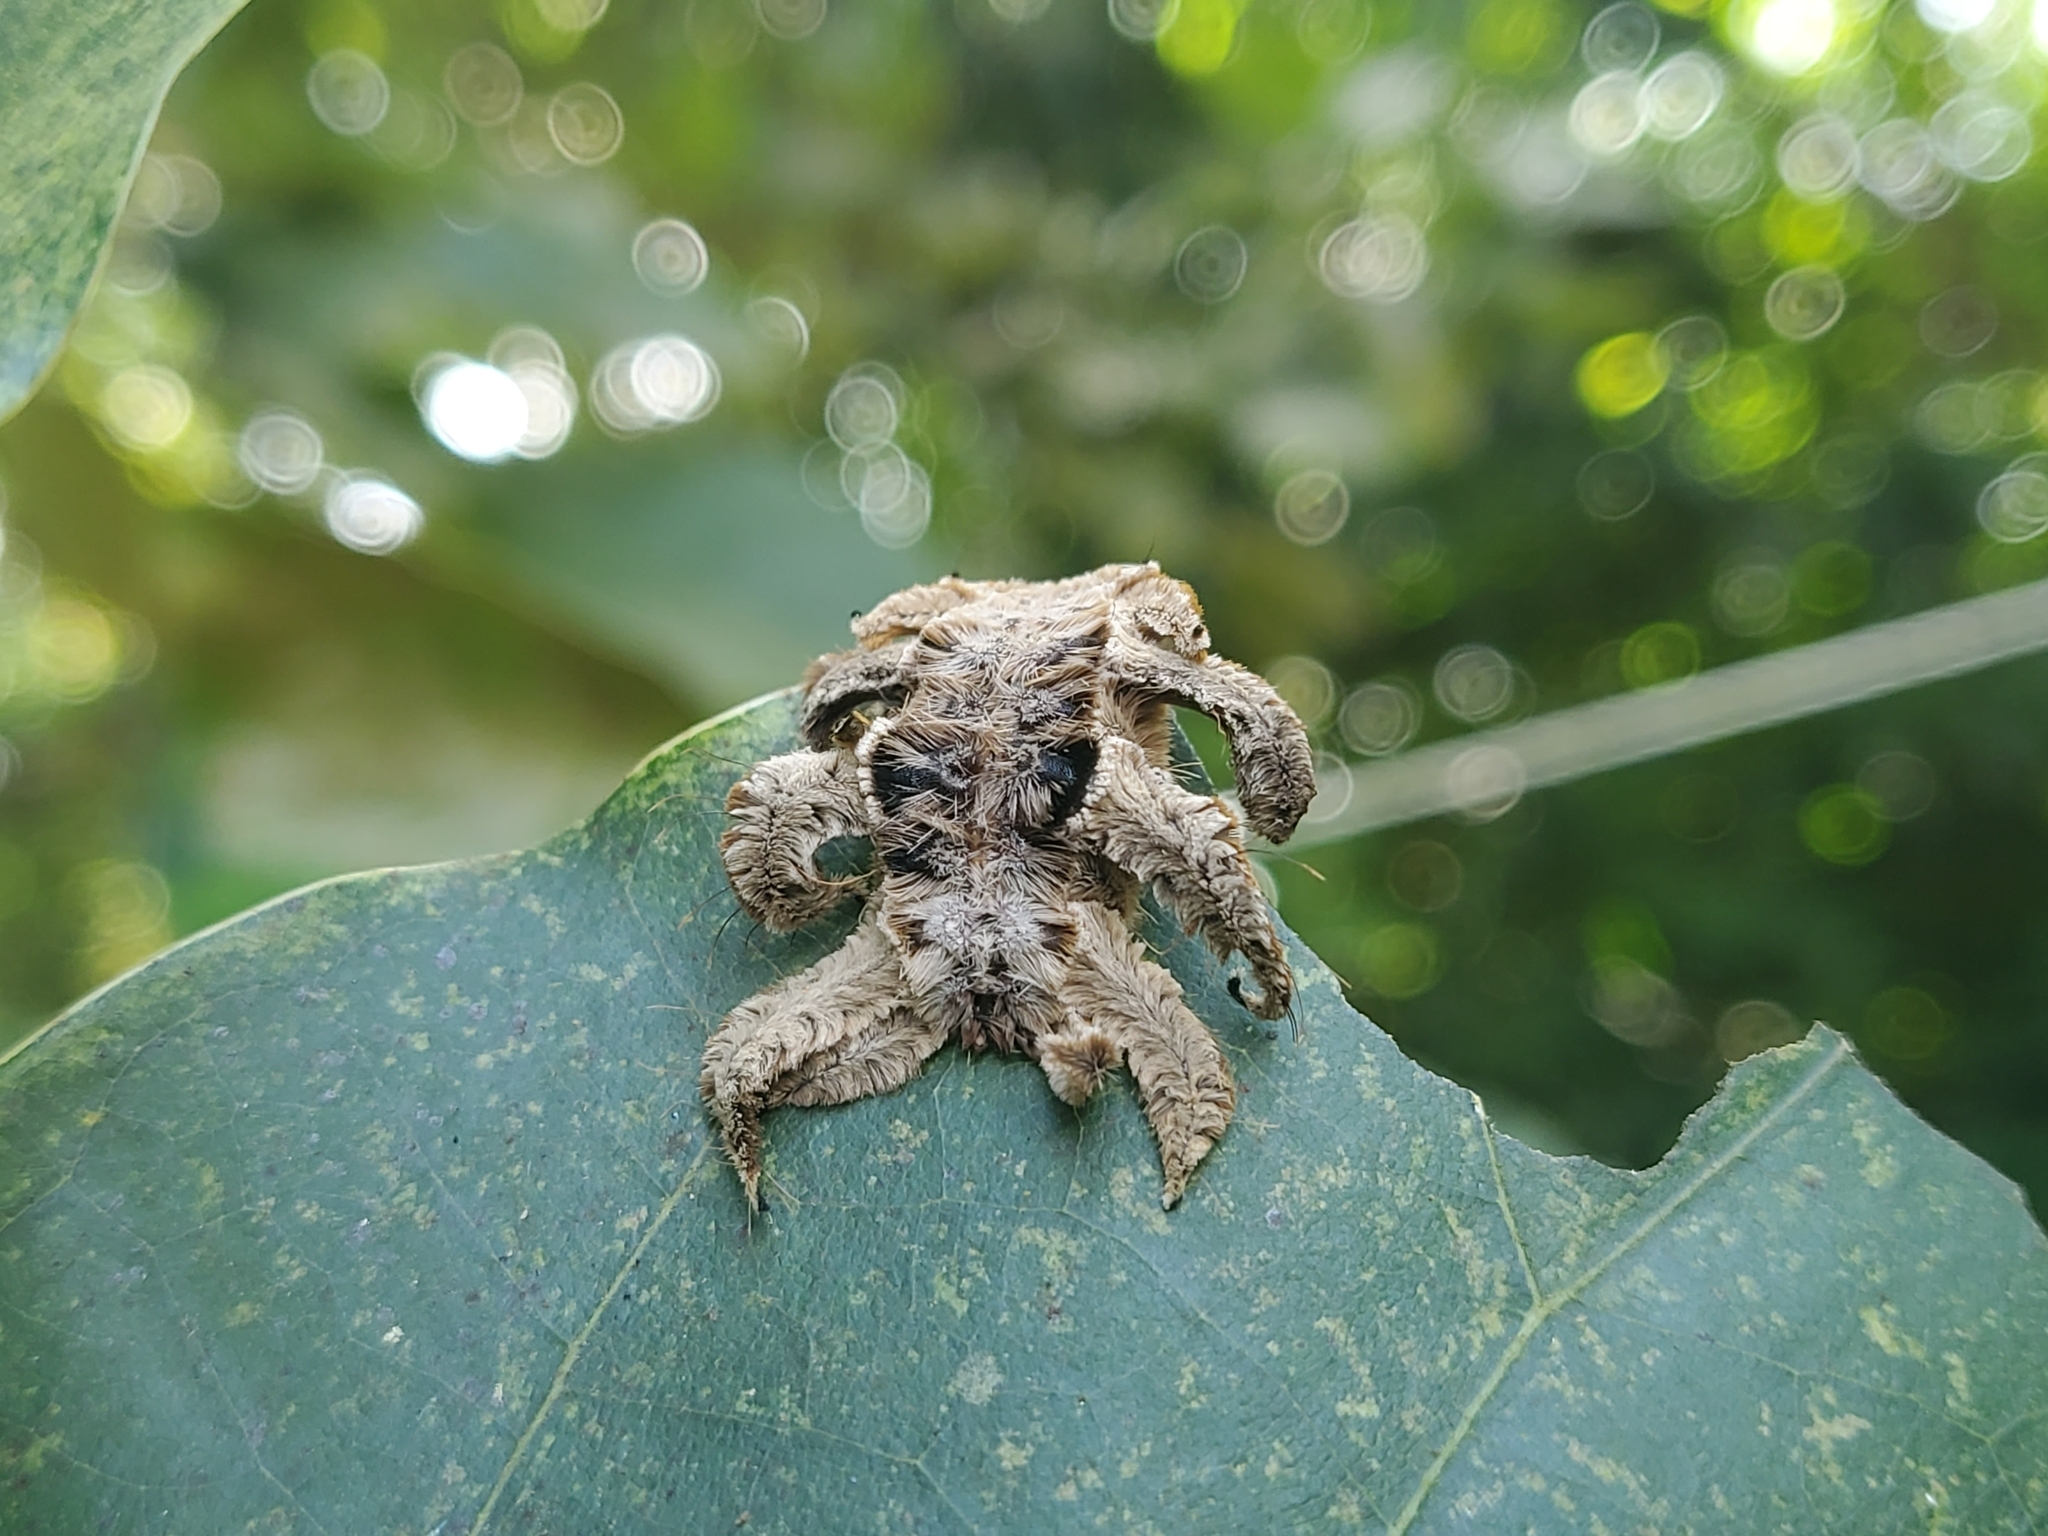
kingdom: Animalia
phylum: Arthropoda
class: Insecta
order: Lepidoptera
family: Limacodidae
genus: Phobetron
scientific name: Phobetron hipparchia
